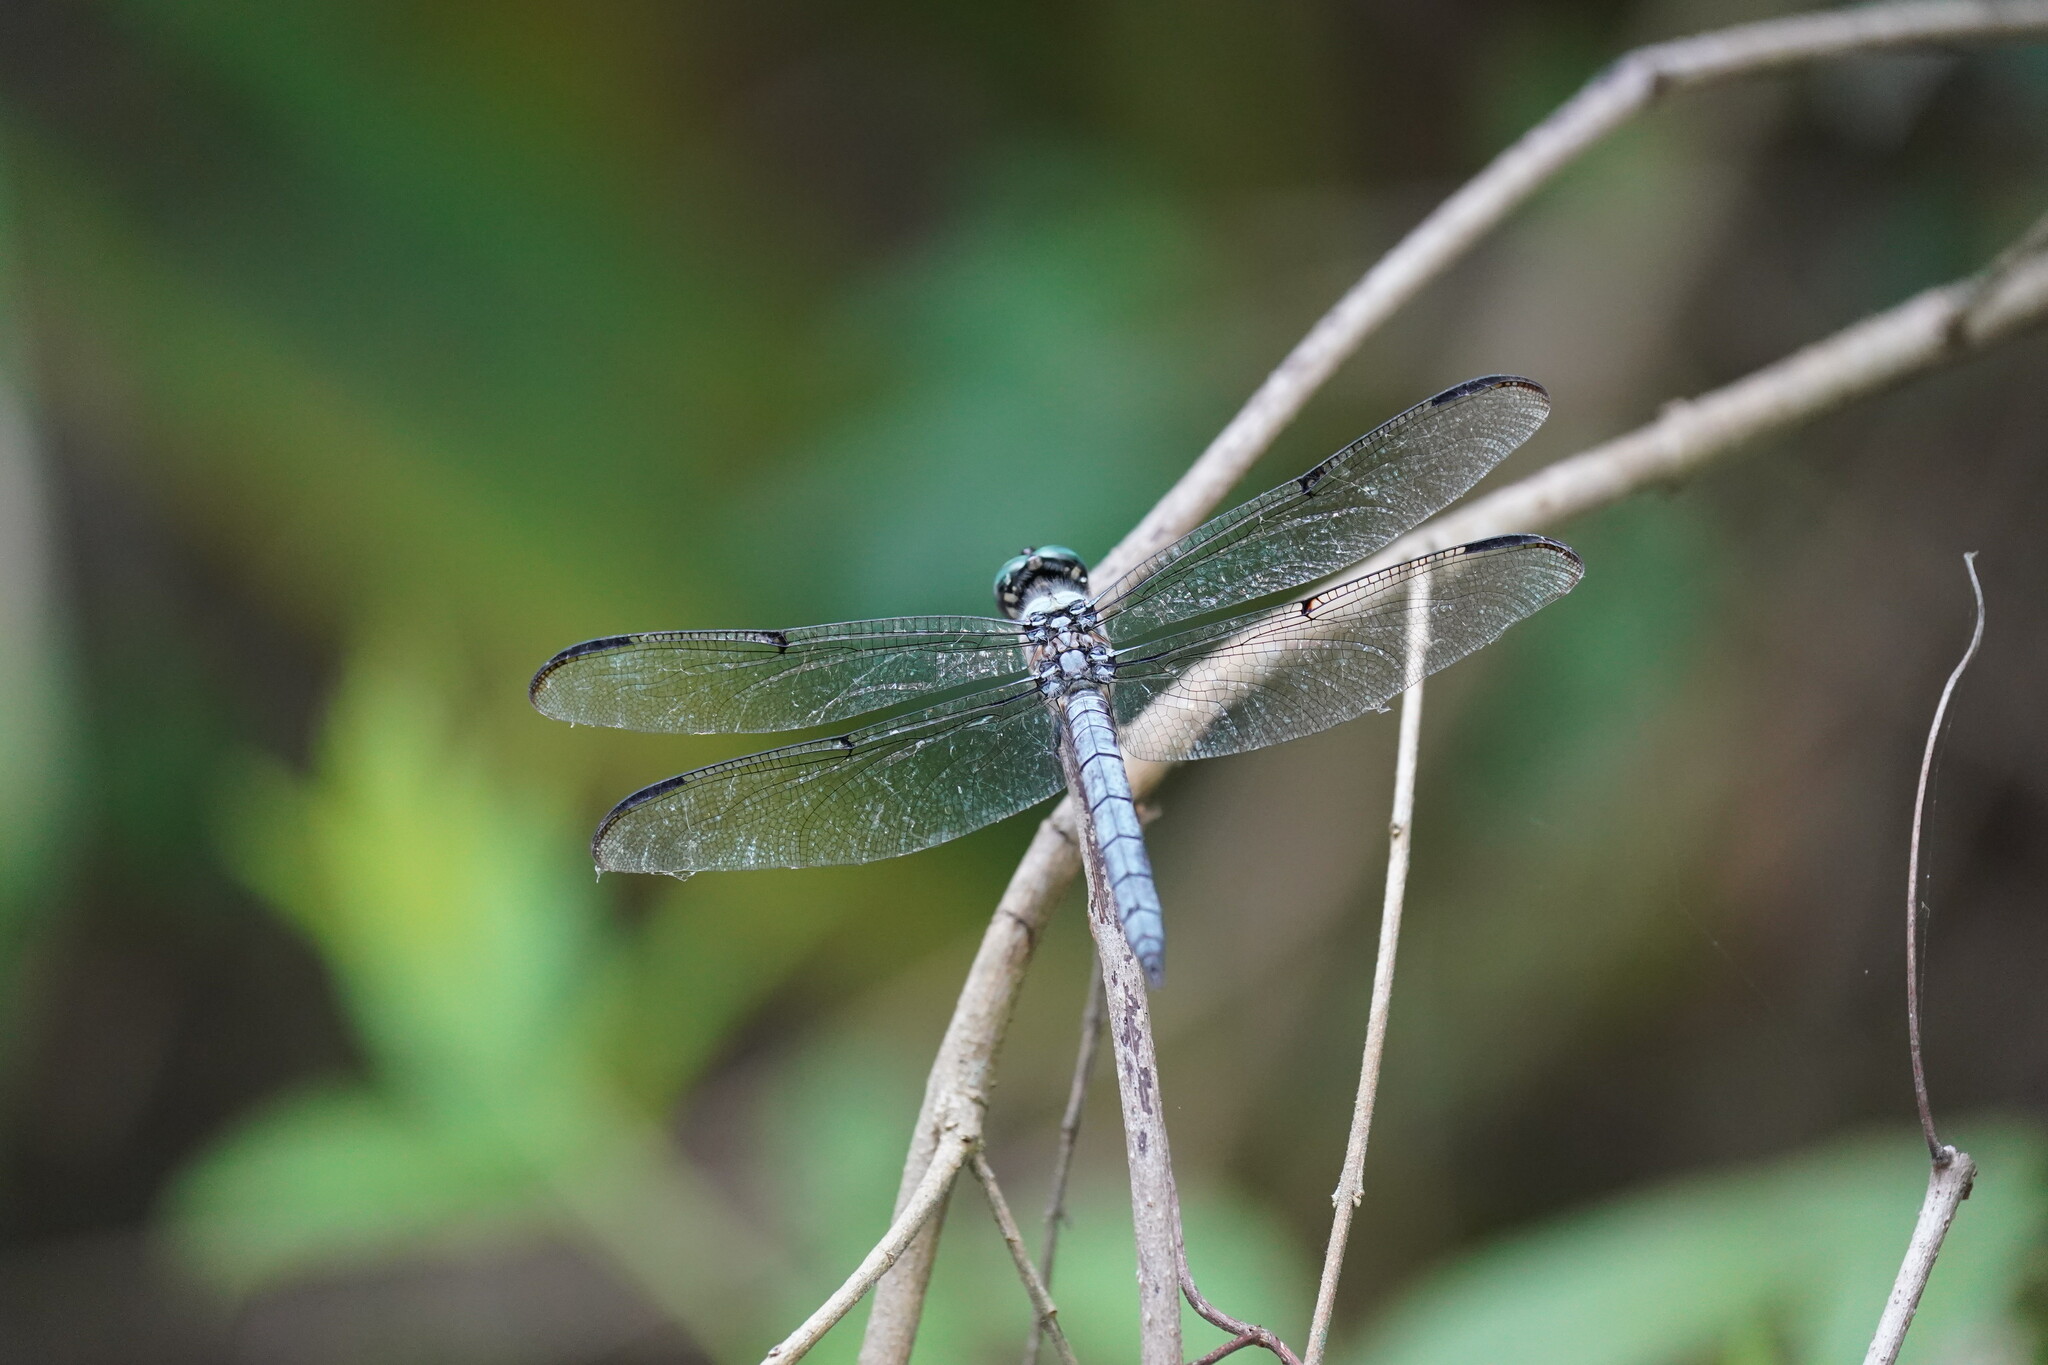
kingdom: Animalia
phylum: Arthropoda
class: Insecta
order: Odonata
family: Libellulidae
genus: Libellula
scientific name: Libellula vibrans
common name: Great blue skimmer
